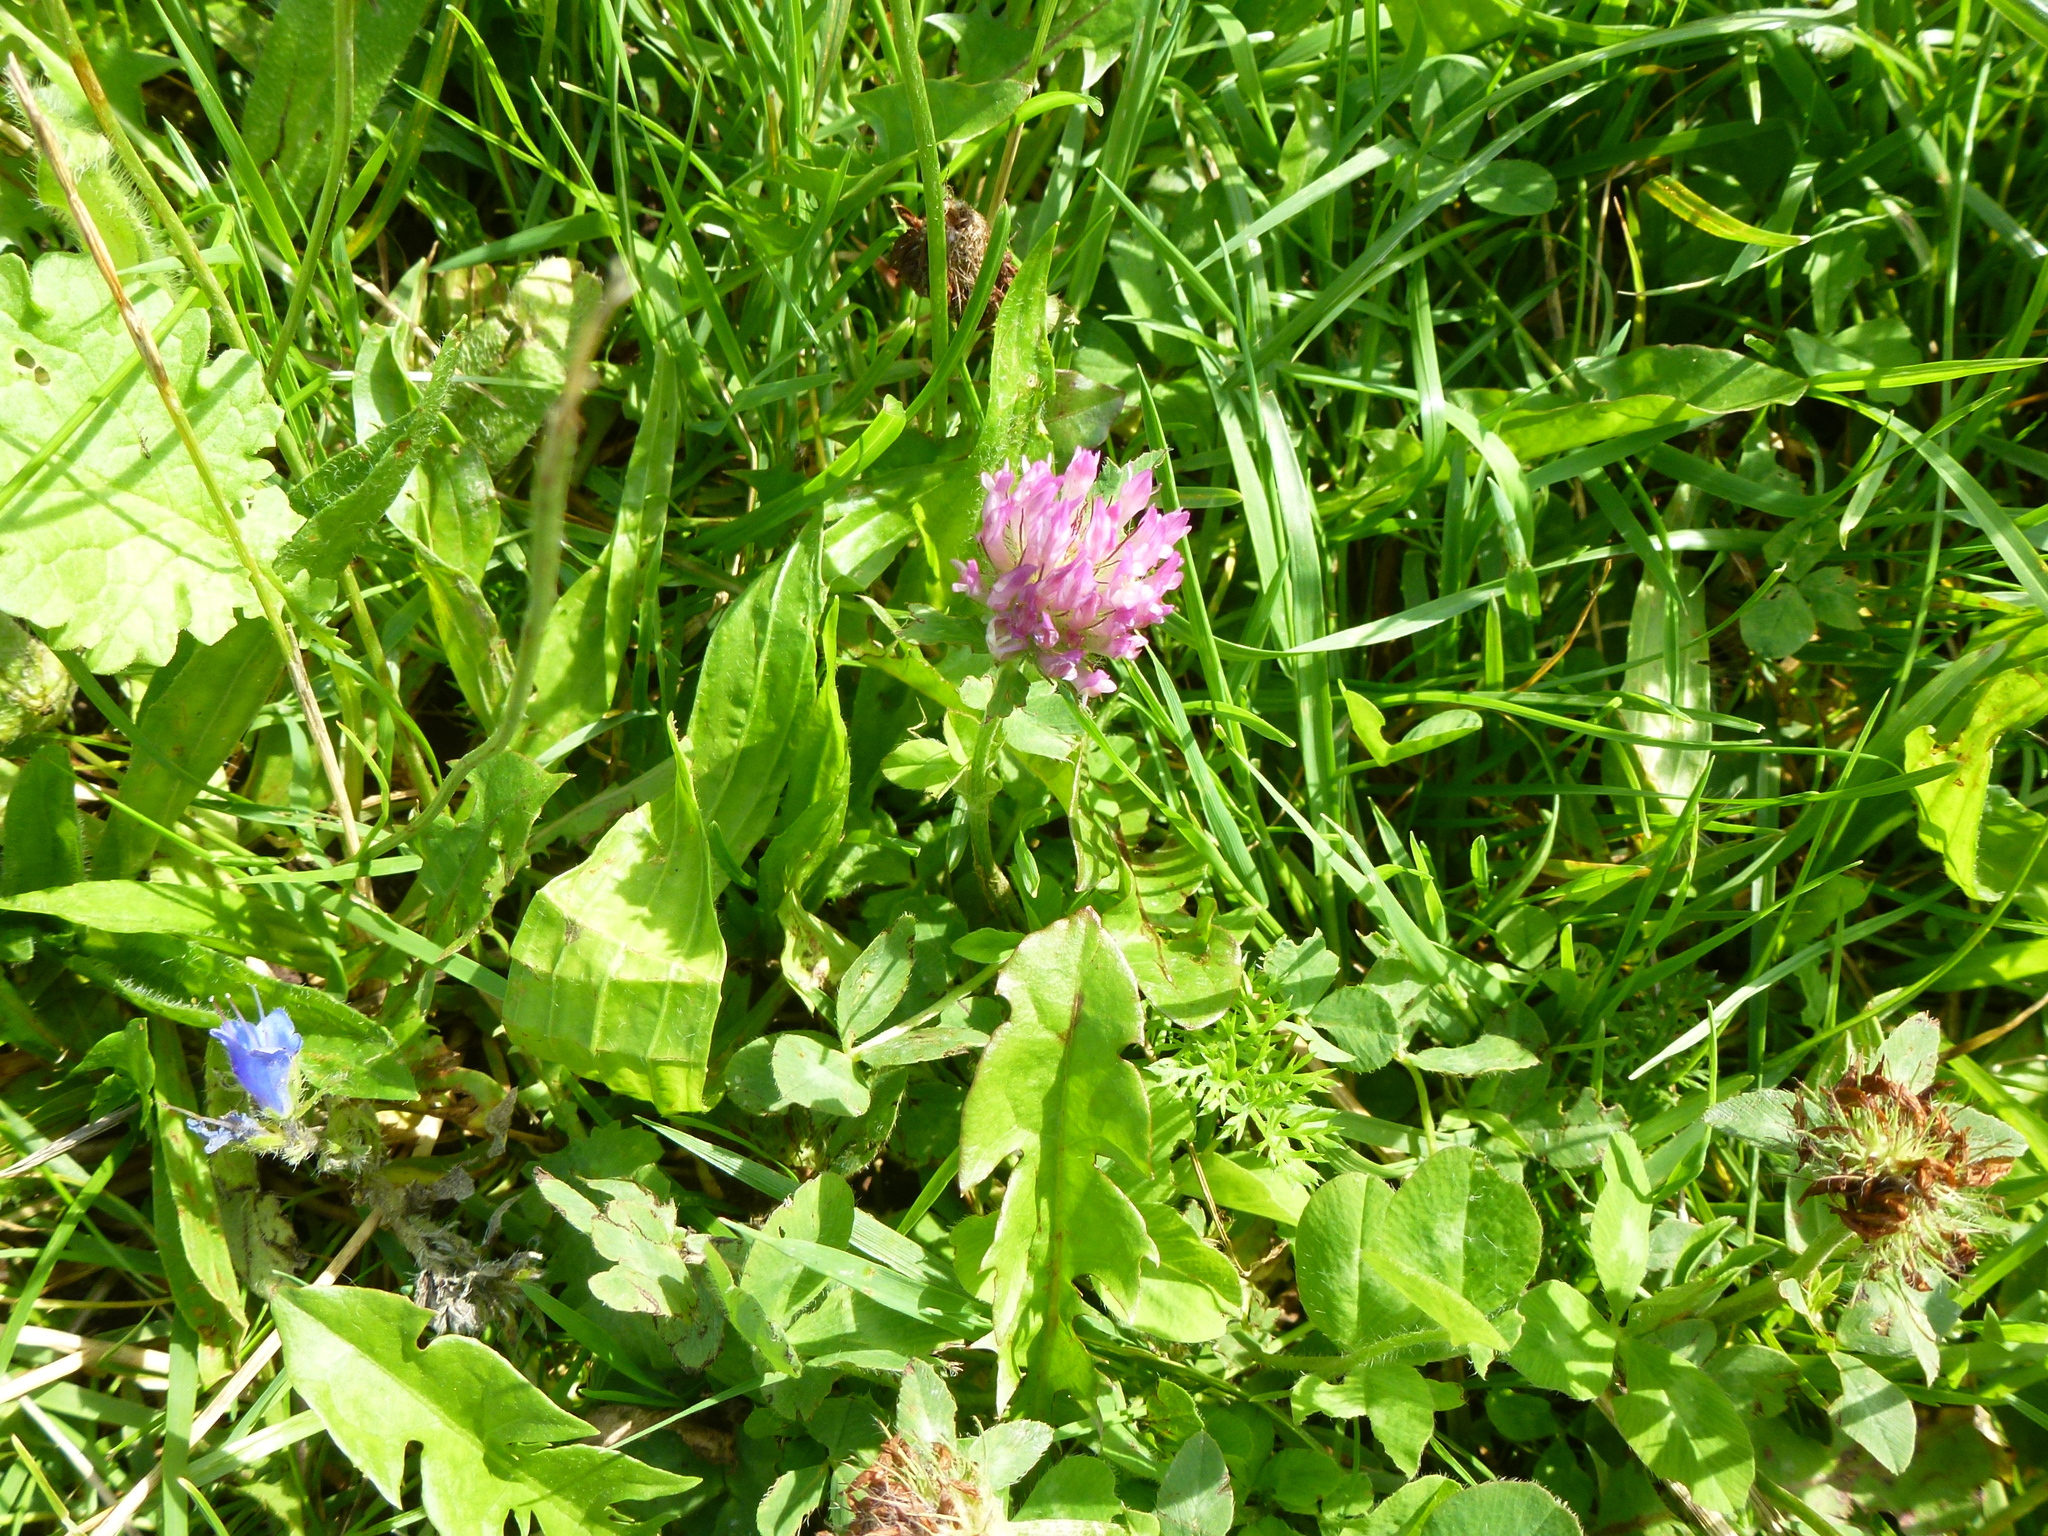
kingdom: Plantae
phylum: Tracheophyta
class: Magnoliopsida
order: Fabales
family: Fabaceae
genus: Trifolium
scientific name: Trifolium pratense
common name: Red clover
